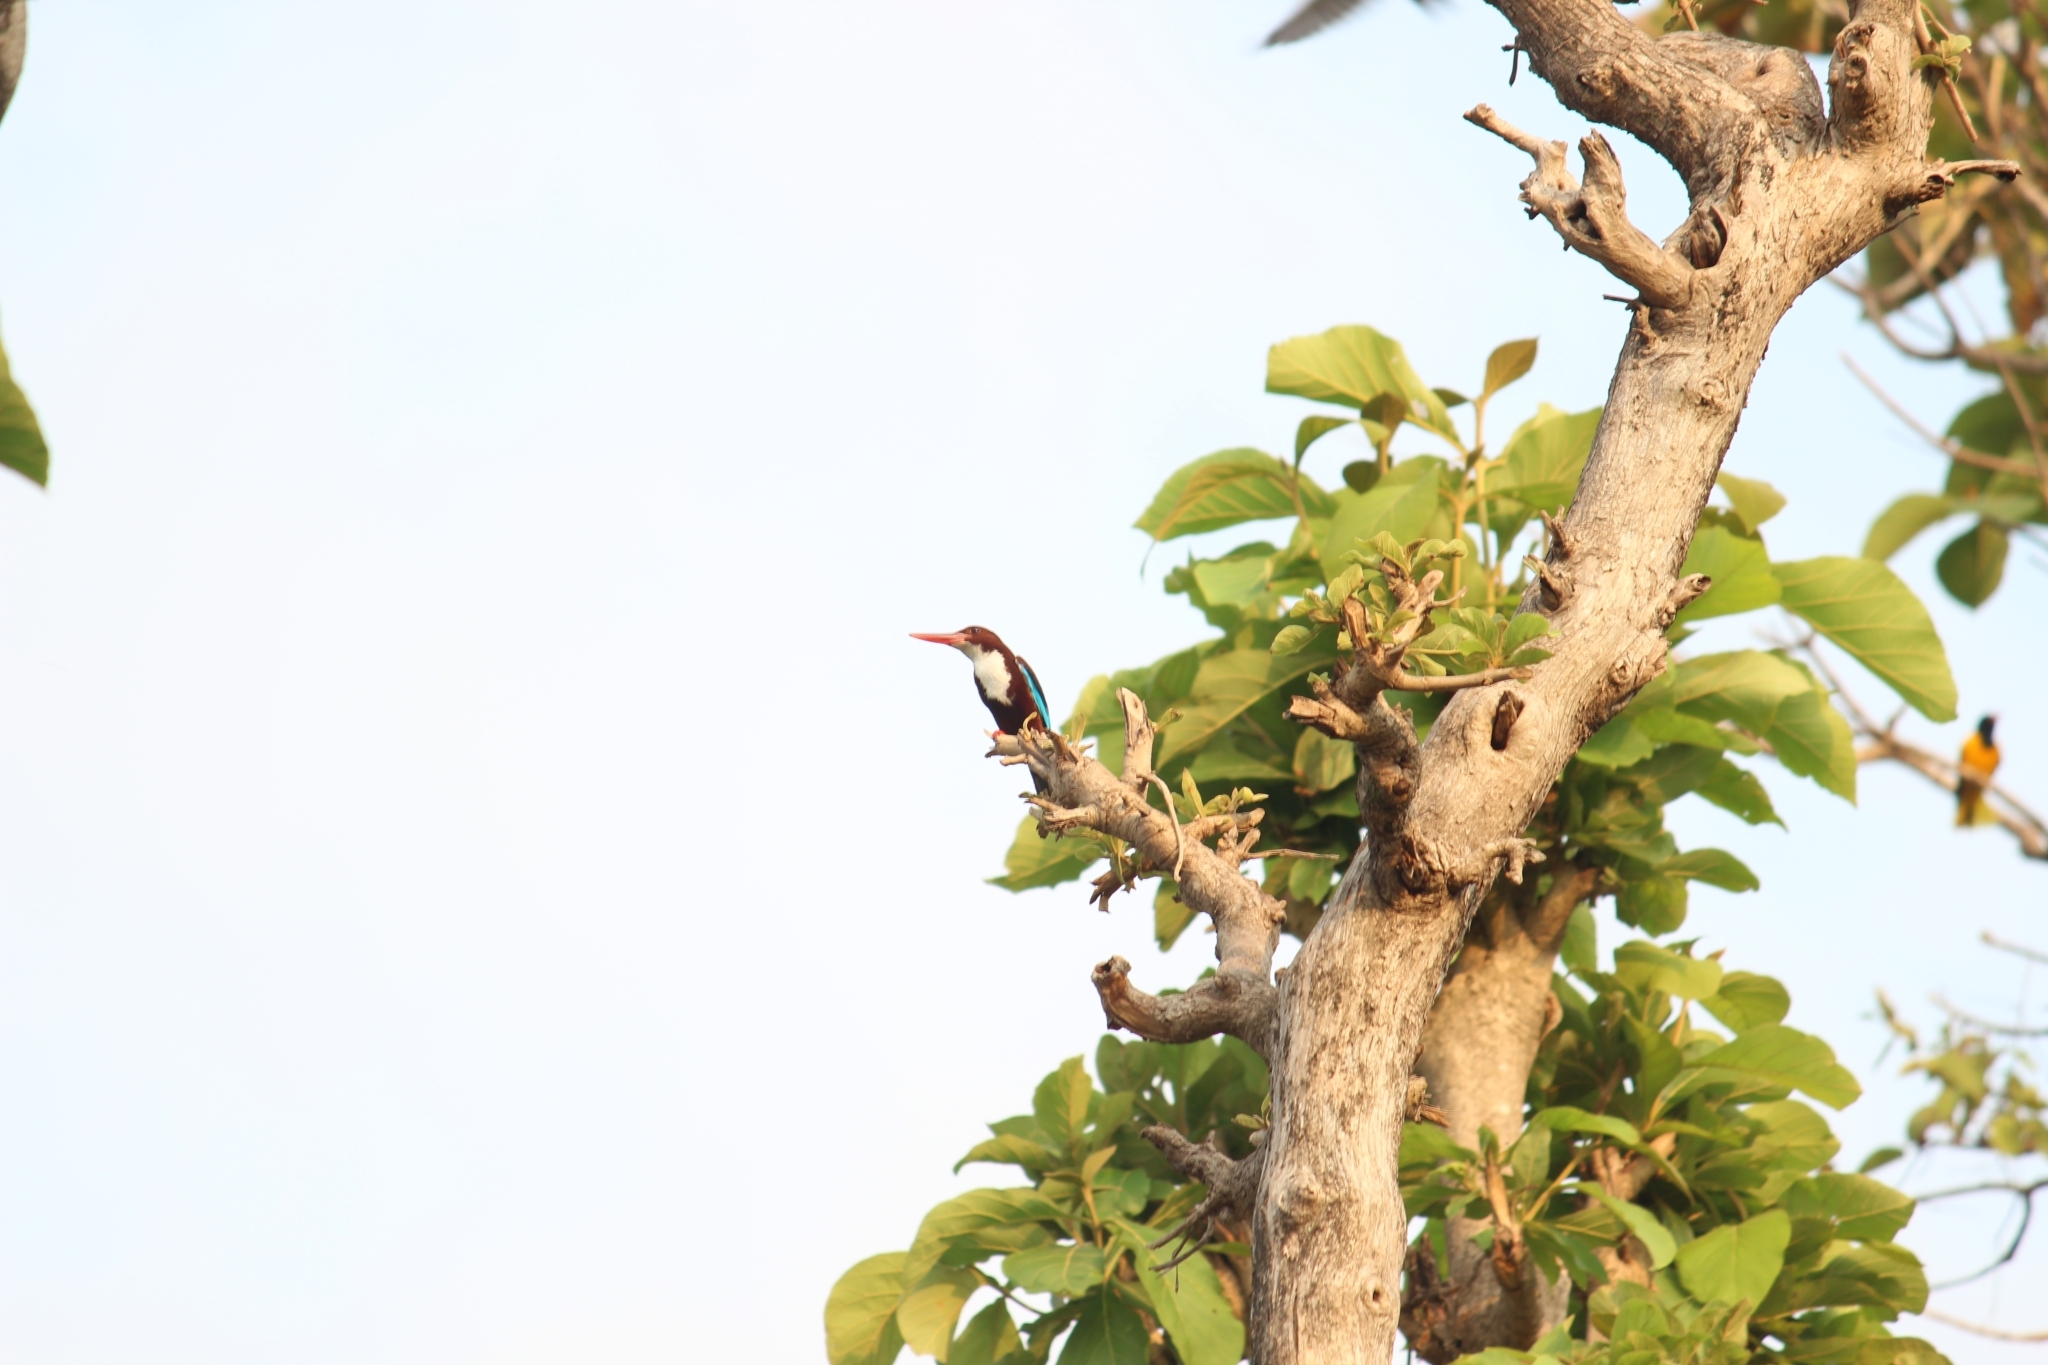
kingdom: Animalia
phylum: Chordata
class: Aves
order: Coraciiformes
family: Alcedinidae
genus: Halcyon
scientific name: Halcyon smyrnensis
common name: White-throated kingfisher
